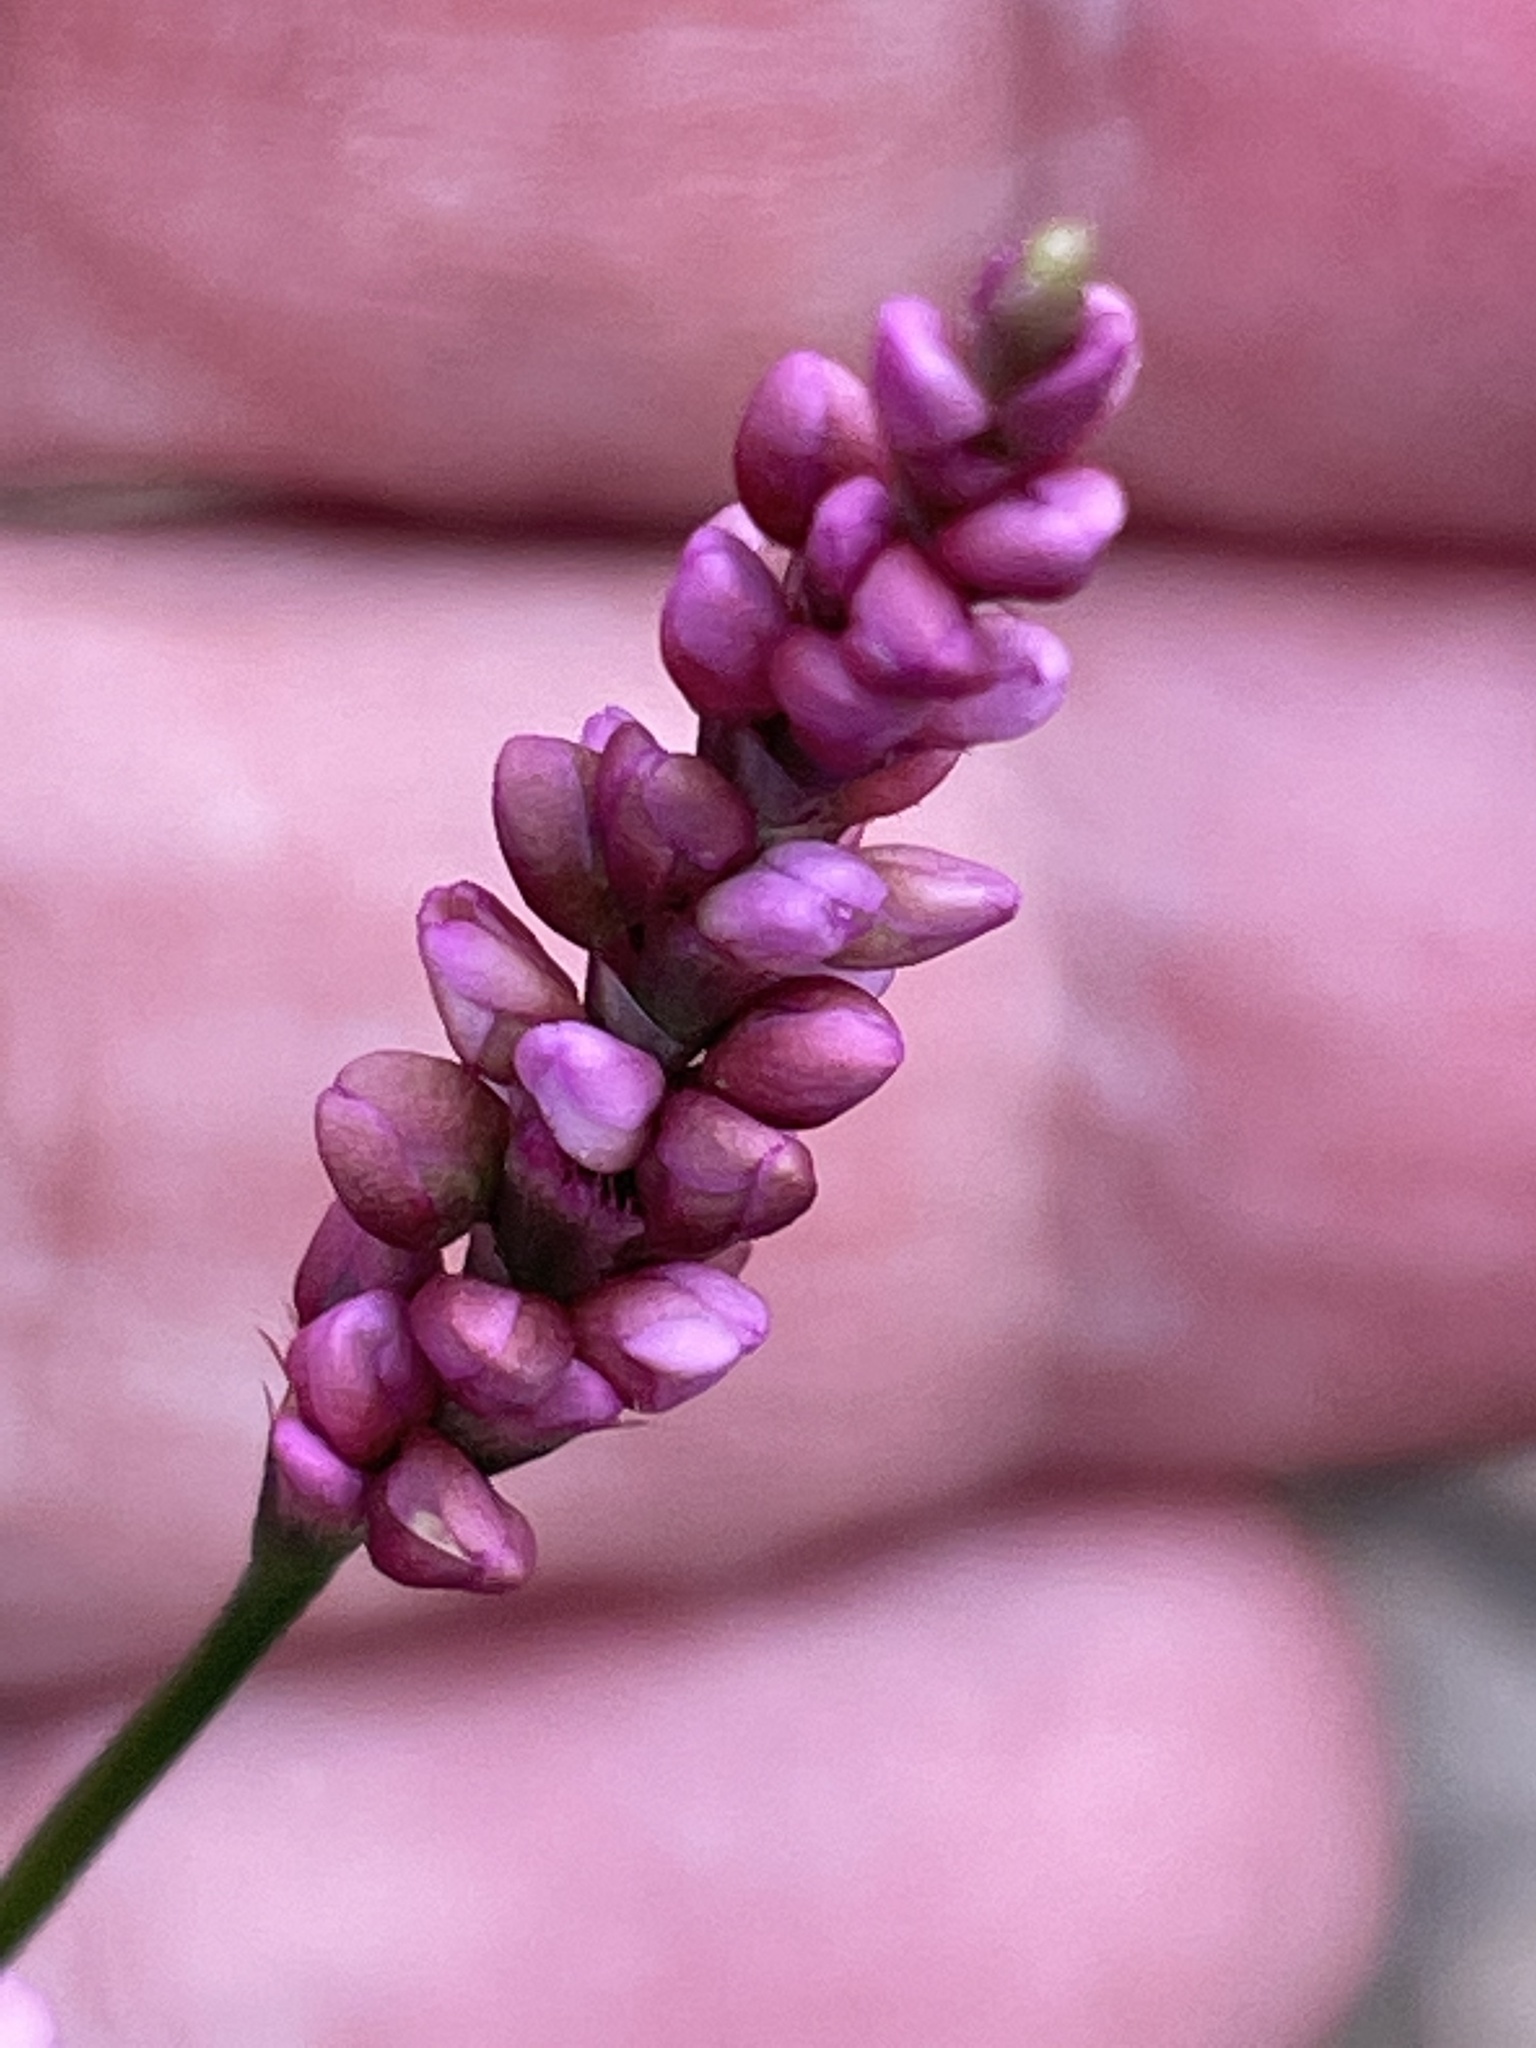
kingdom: Plantae
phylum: Tracheophyta
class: Magnoliopsida
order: Caryophyllales
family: Polygonaceae
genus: Persicaria
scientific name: Persicaria longiseta
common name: Bristly lady's-thumb
